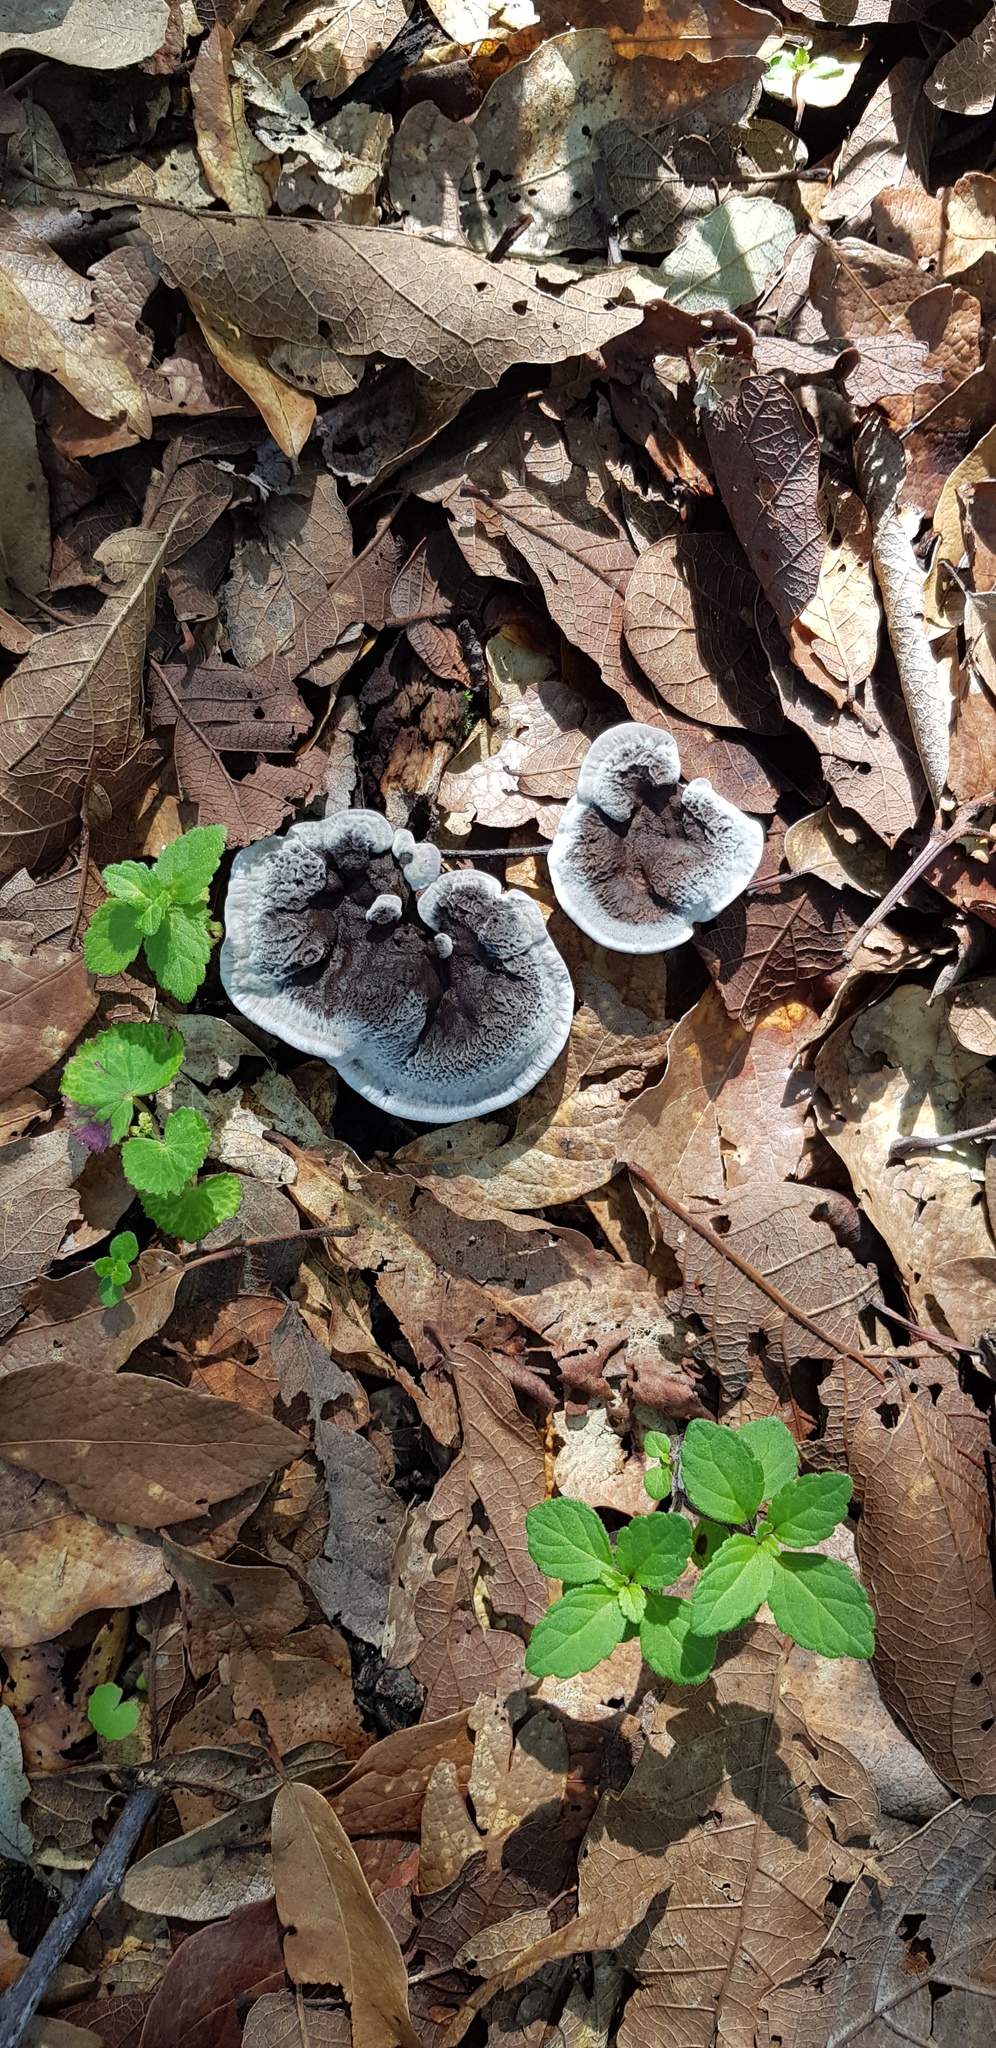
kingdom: Fungi
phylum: Basidiomycota
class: Agaricomycetes
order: Thelephorales
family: Thelephoraceae
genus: Phellodon
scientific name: Phellodon niger
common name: Black tooth
